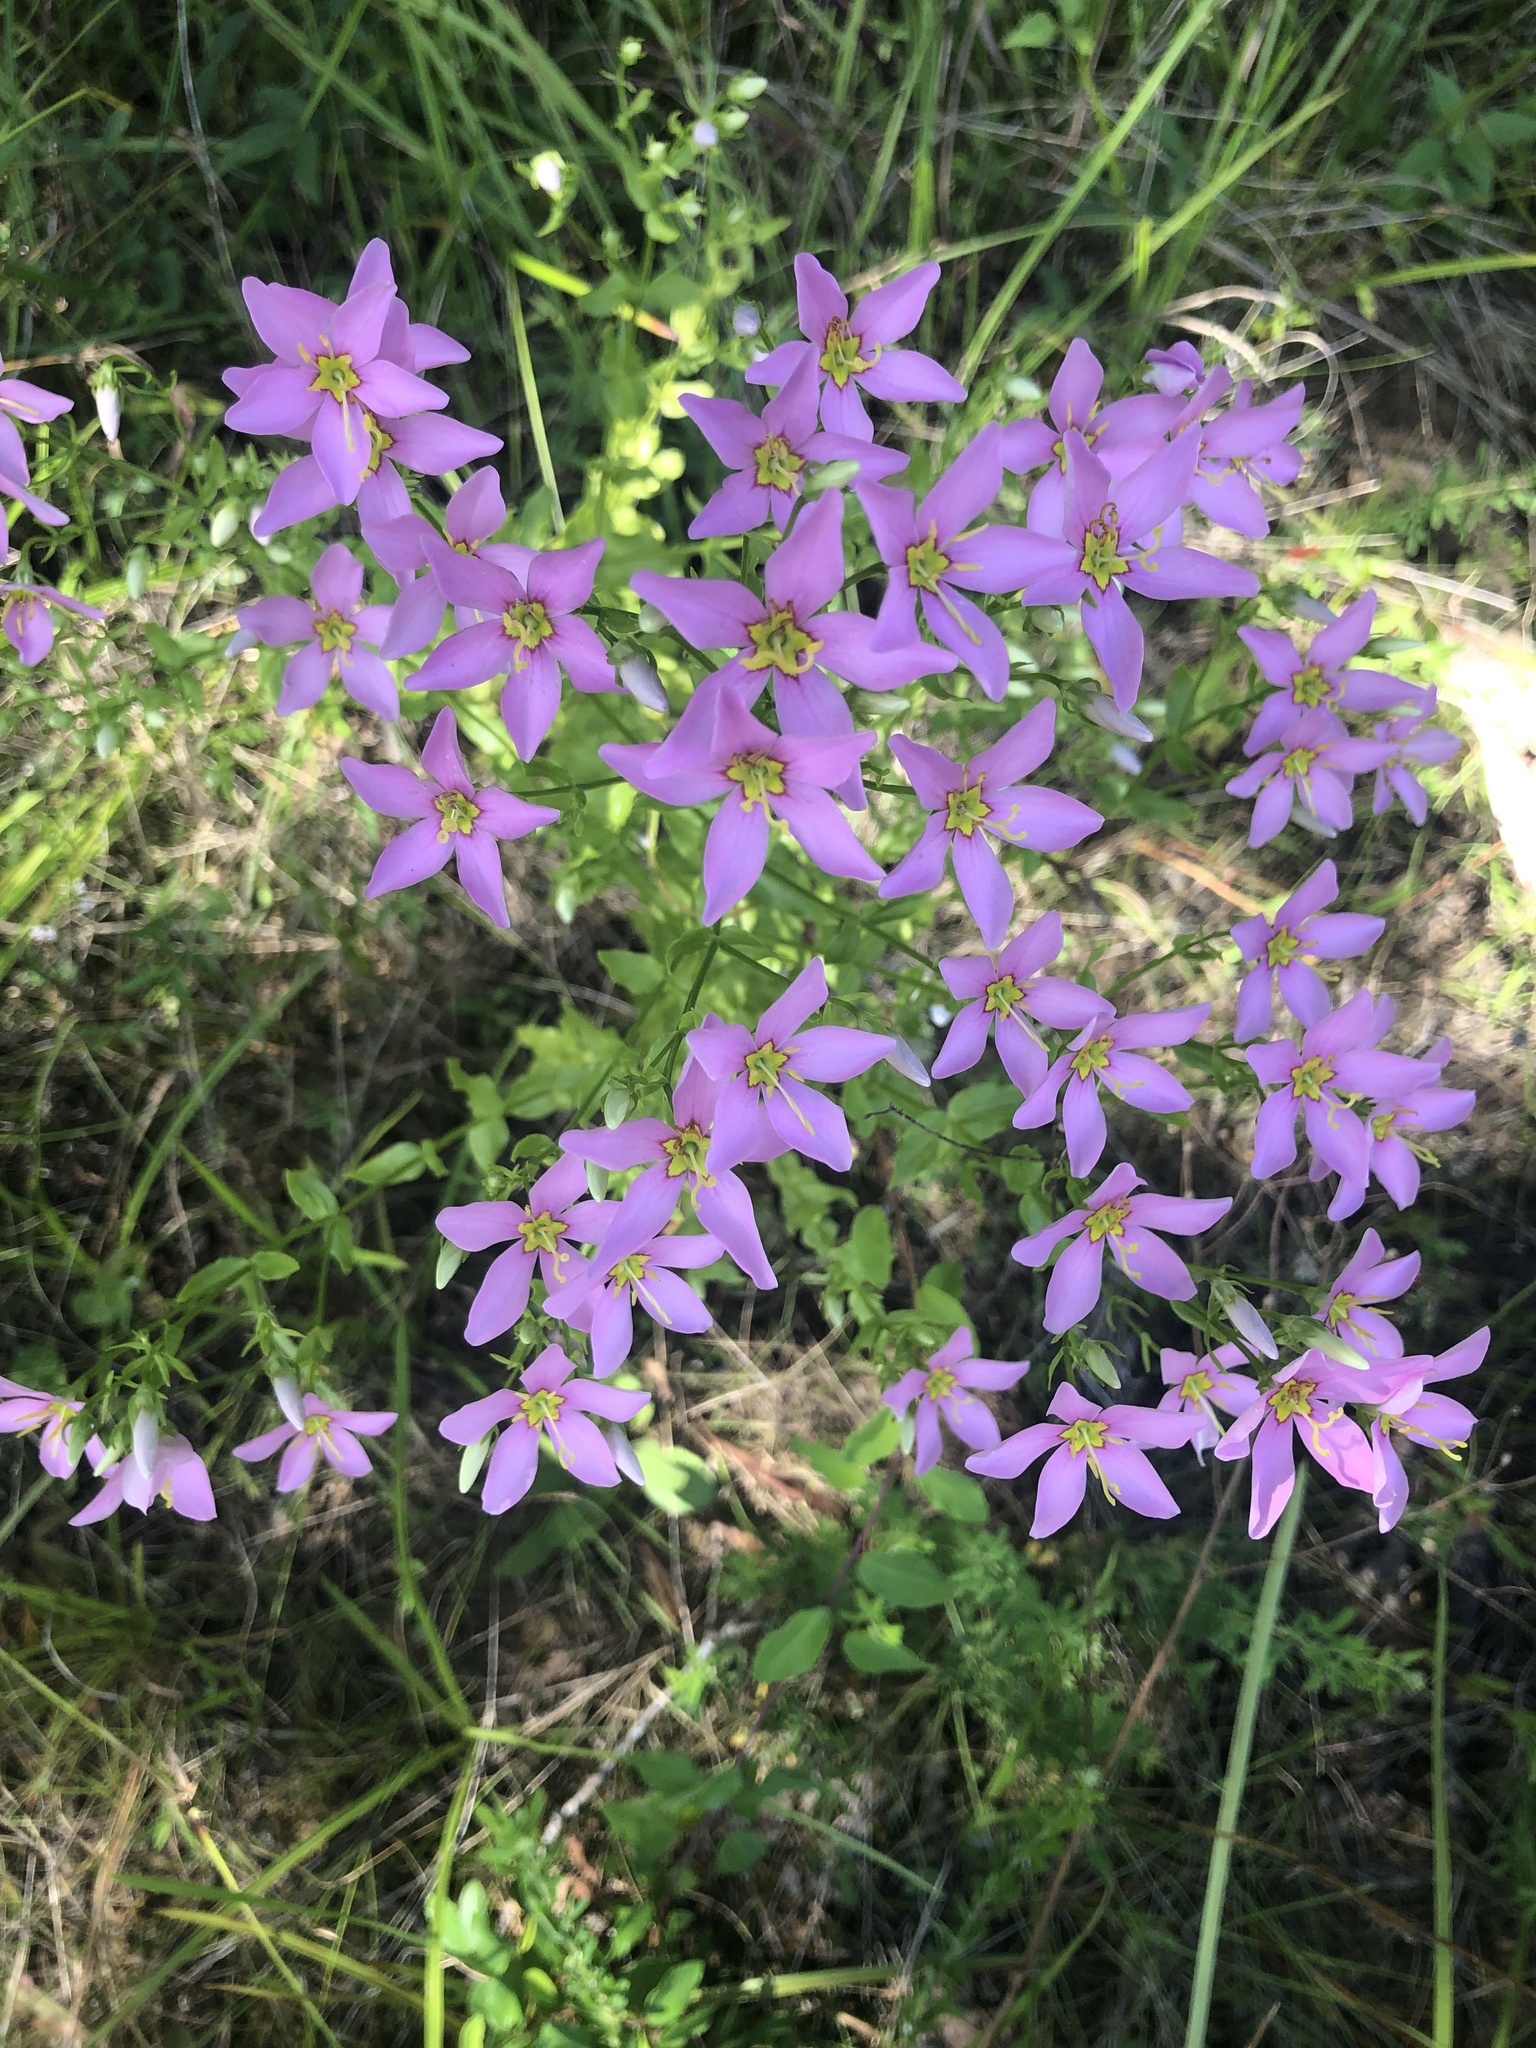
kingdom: Plantae
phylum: Tracheophyta
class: Magnoliopsida
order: Gentianales
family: Gentianaceae
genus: Sabatia
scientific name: Sabatia angularis
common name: Rose-pink
